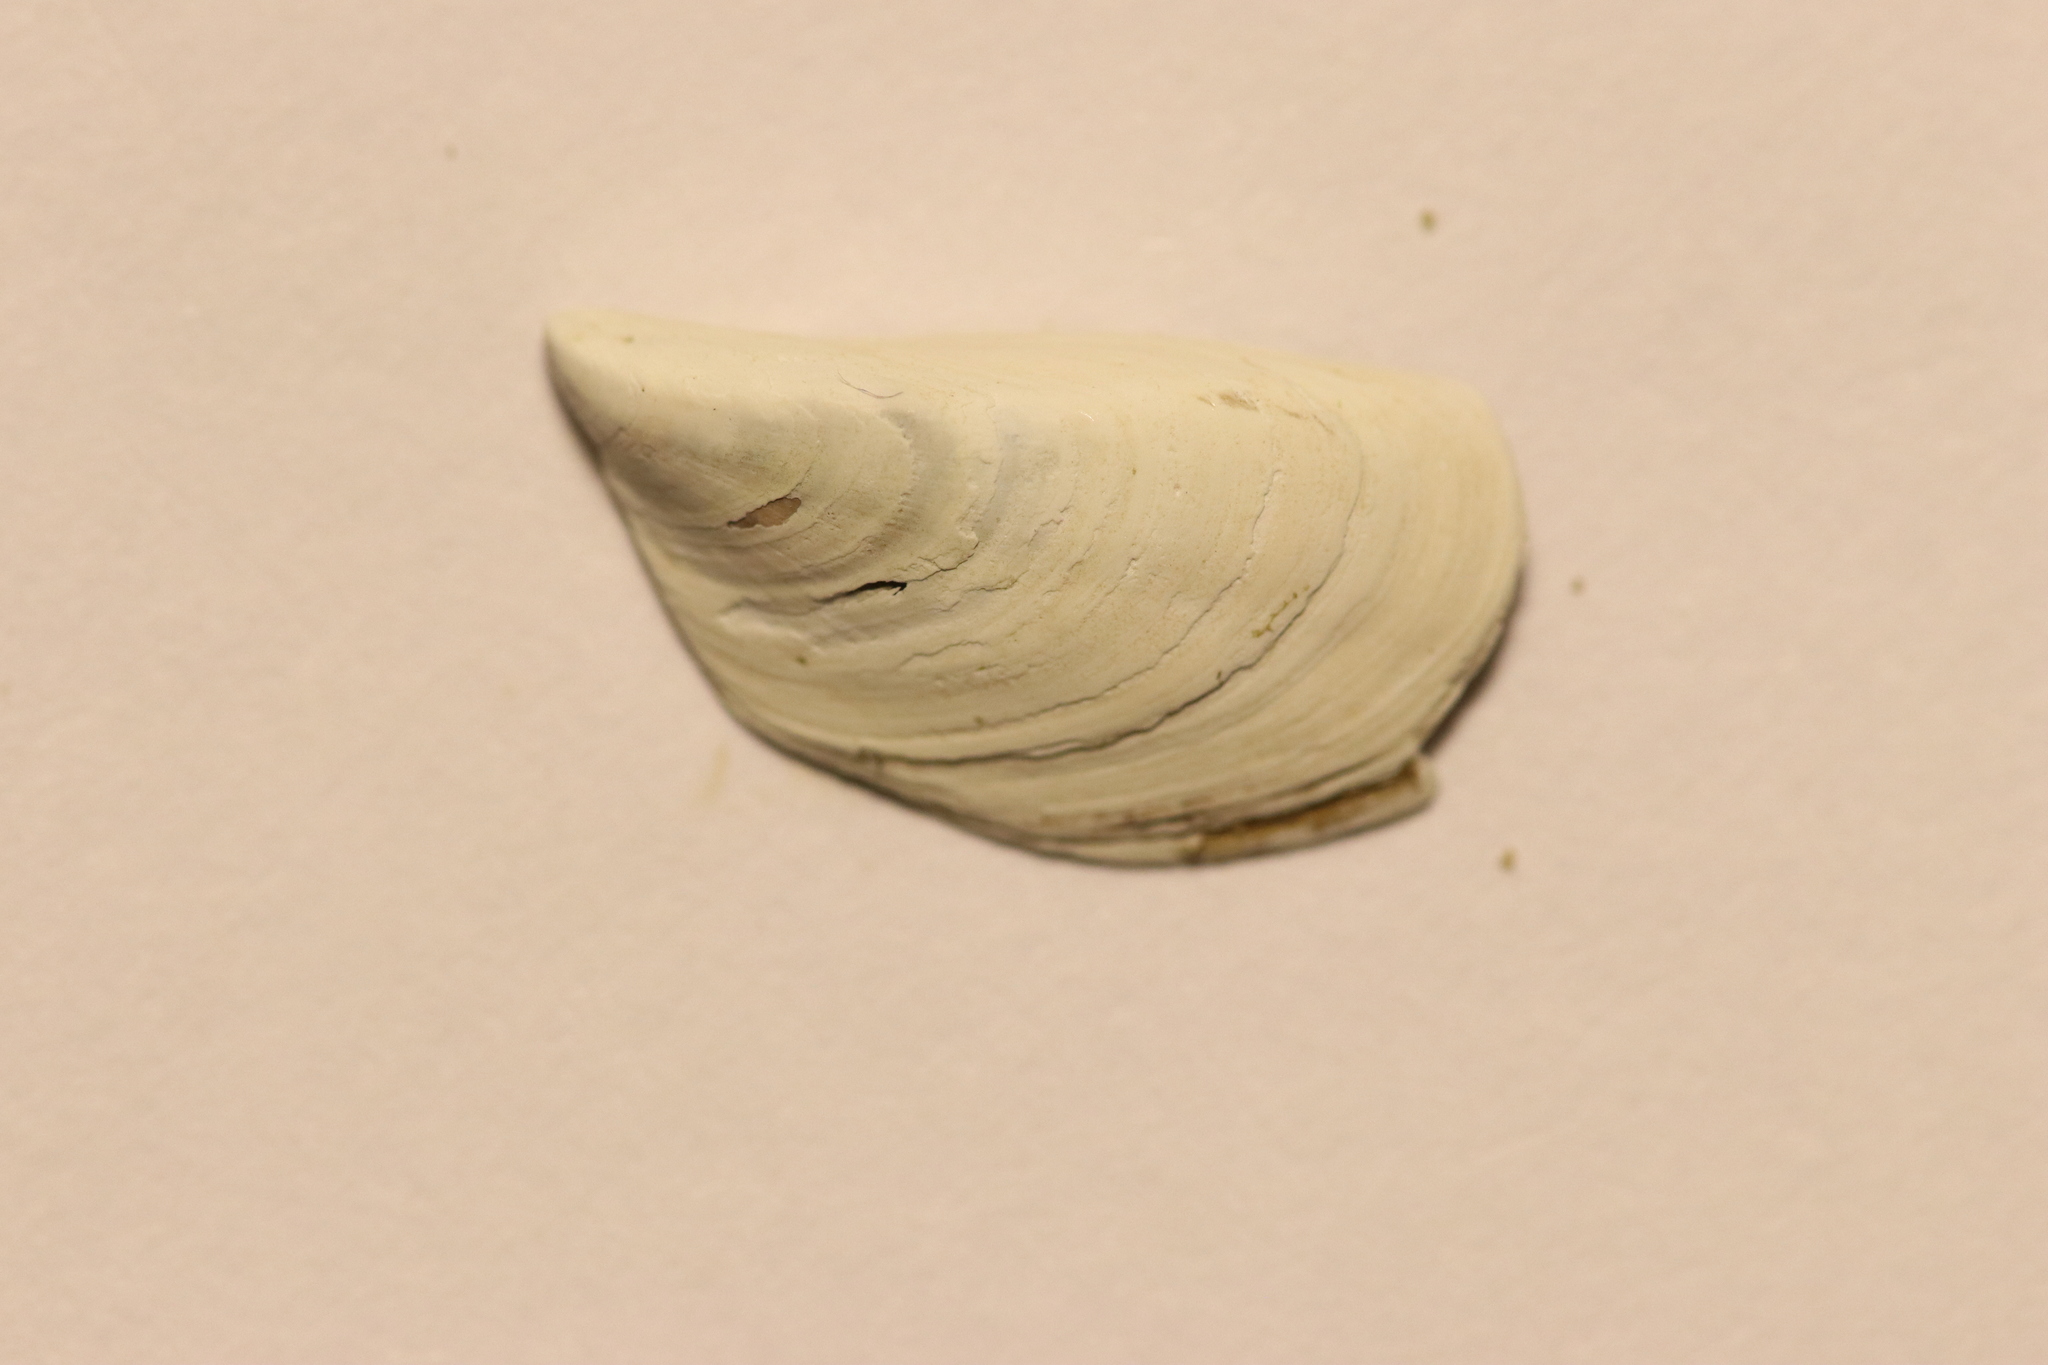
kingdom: Animalia
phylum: Mollusca
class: Bivalvia
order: Myida
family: Dreissenidae
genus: Dreissena
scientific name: Dreissena polymorpha
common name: Zebra mussel
